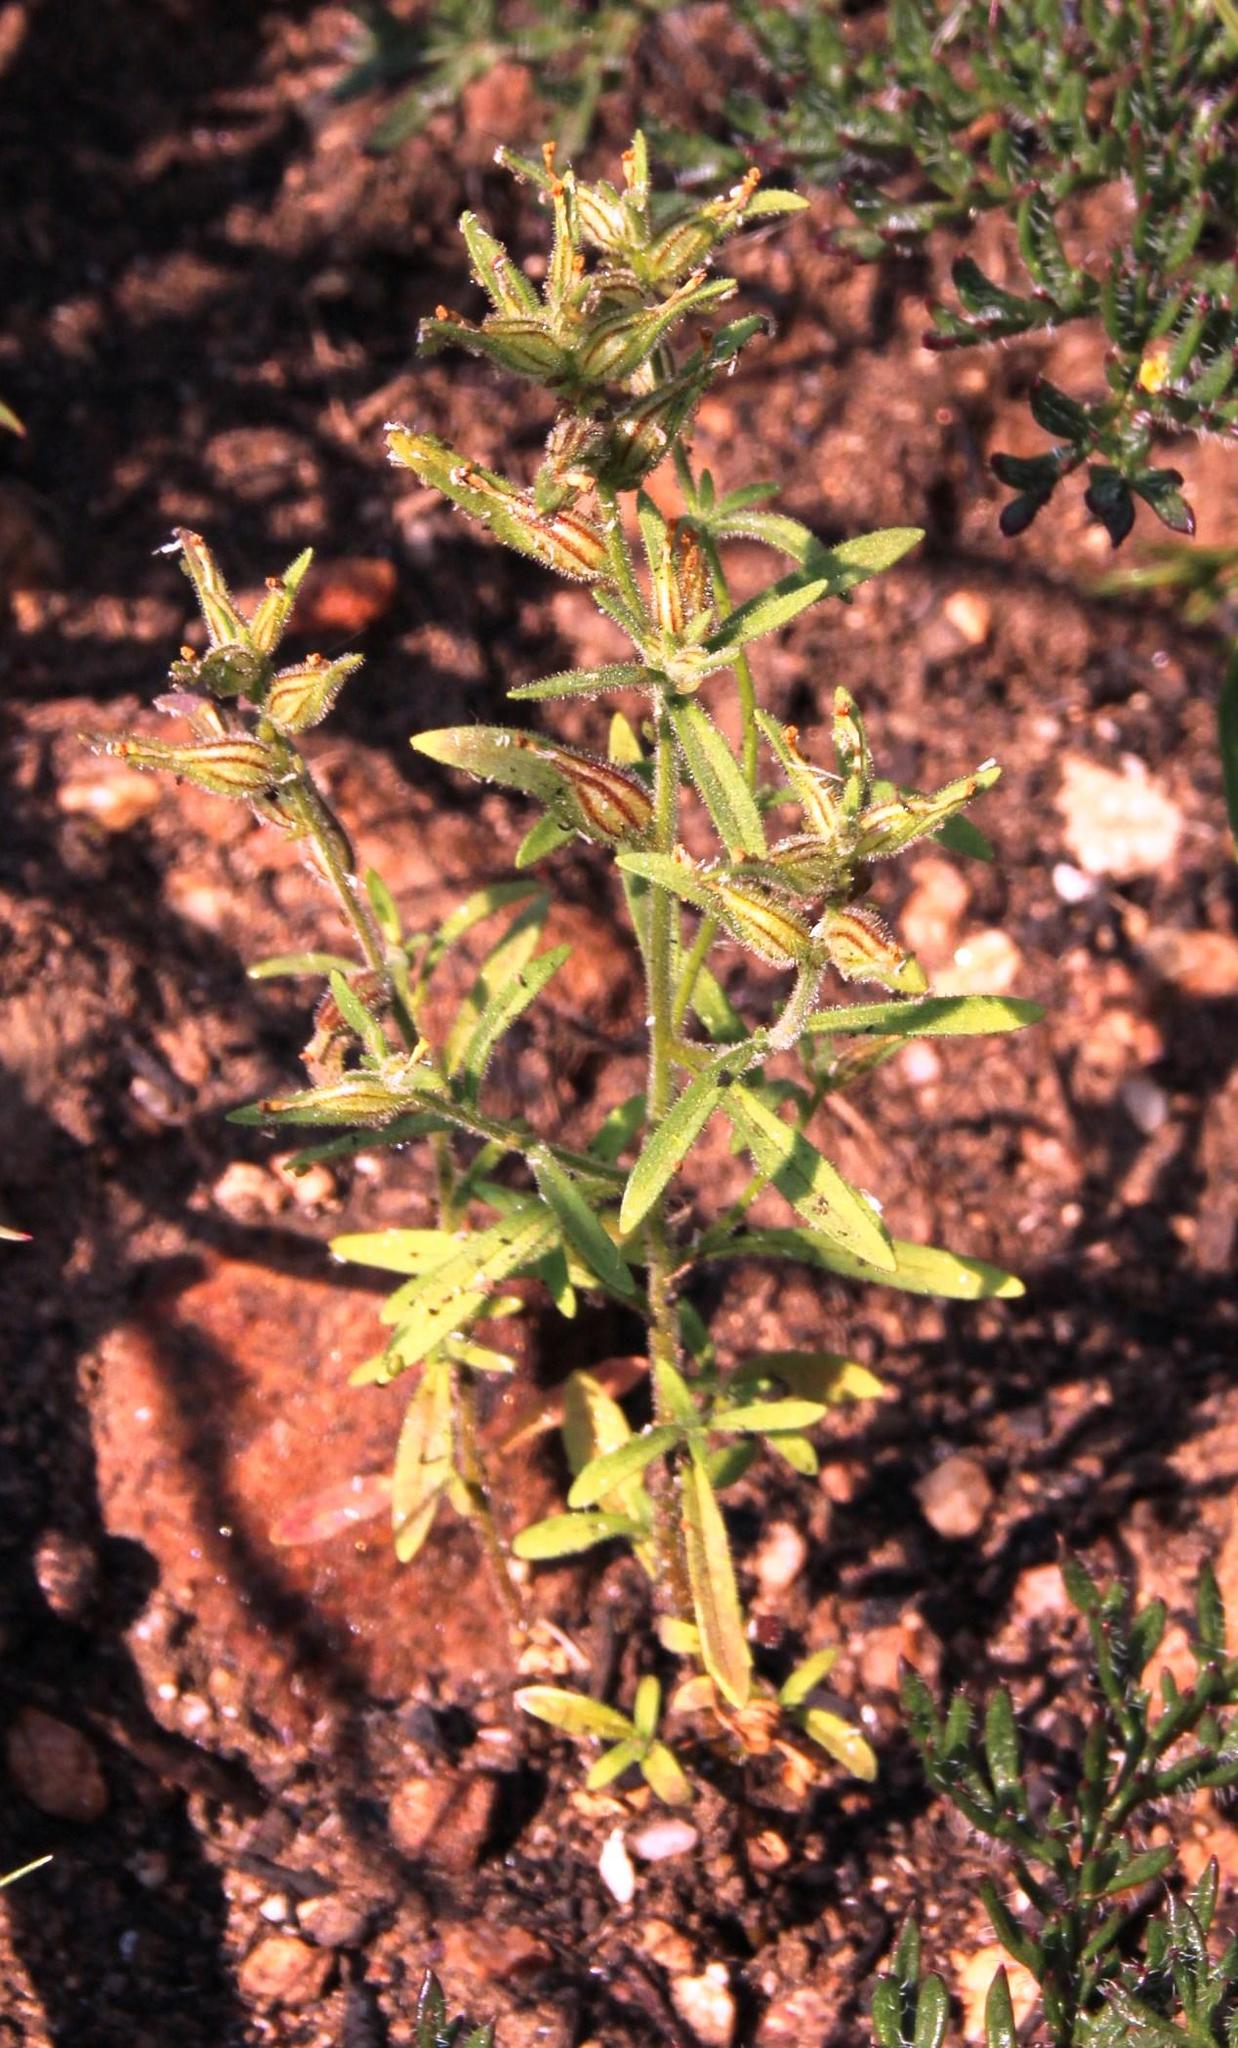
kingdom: Plantae
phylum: Tracheophyta
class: Magnoliopsida
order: Lamiales
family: Scrophulariaceae
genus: Polycarena
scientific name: Polycarena silenoides
